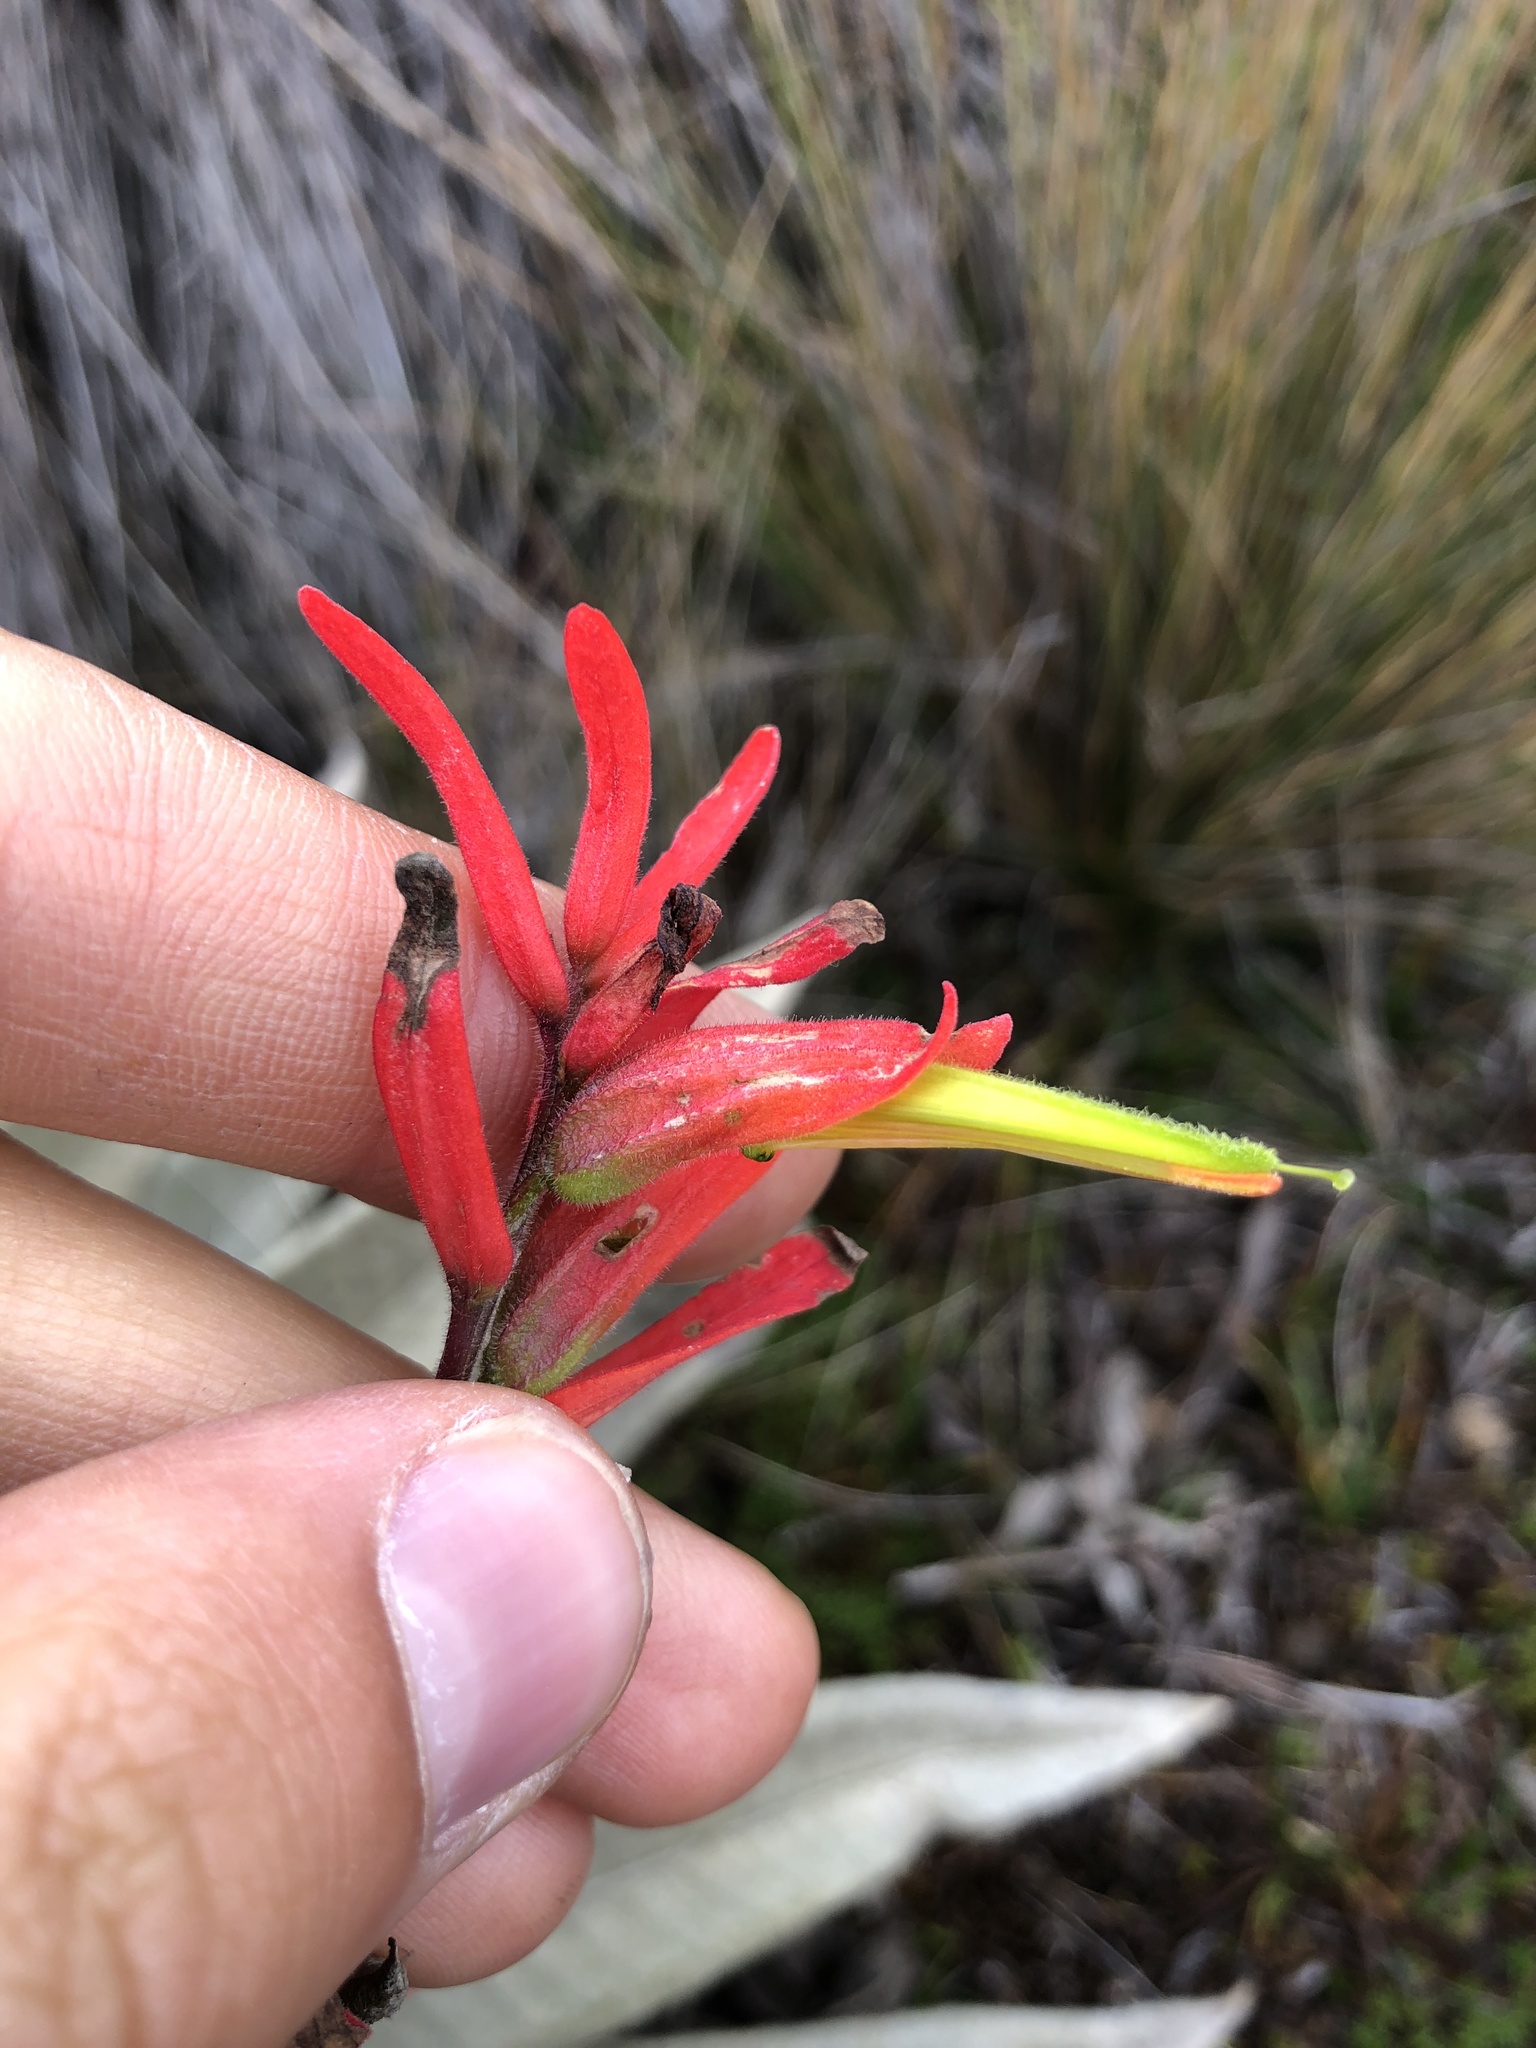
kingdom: Plantae
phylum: Tracheophyta
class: Magnoliopsida
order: Lamiales
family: Orobanchaceae
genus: Castilleja
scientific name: Castilleja integrifolia
